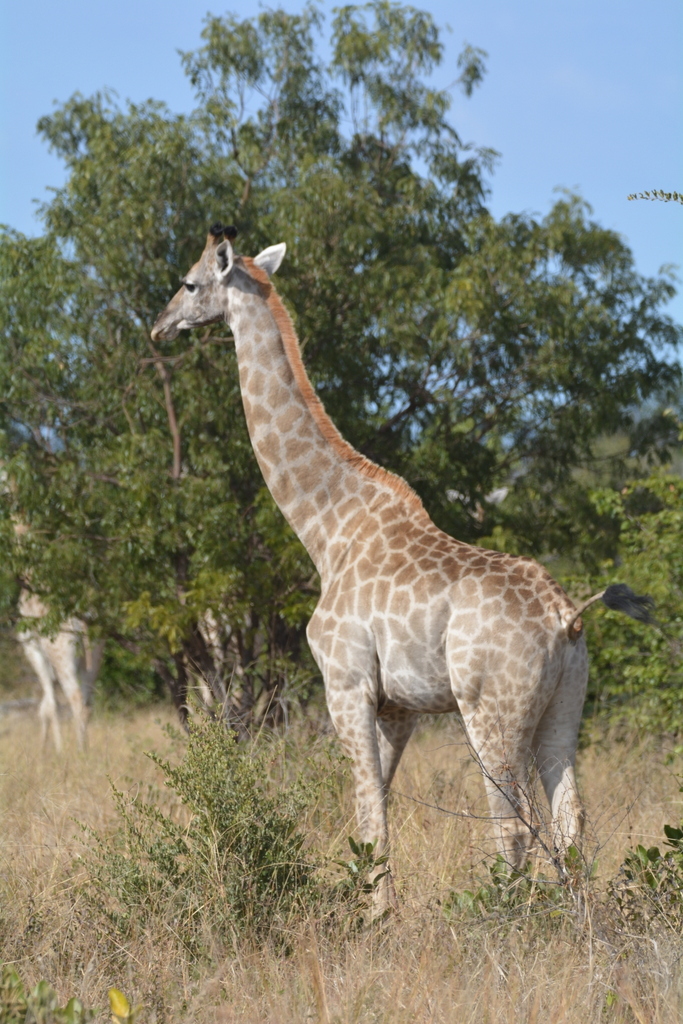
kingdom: Animalia
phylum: Chordata
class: Mammalia
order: Artiodactyla
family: Giraffidae
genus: Giraffa
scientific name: Giraffa giraffa
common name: Southern giraffe
